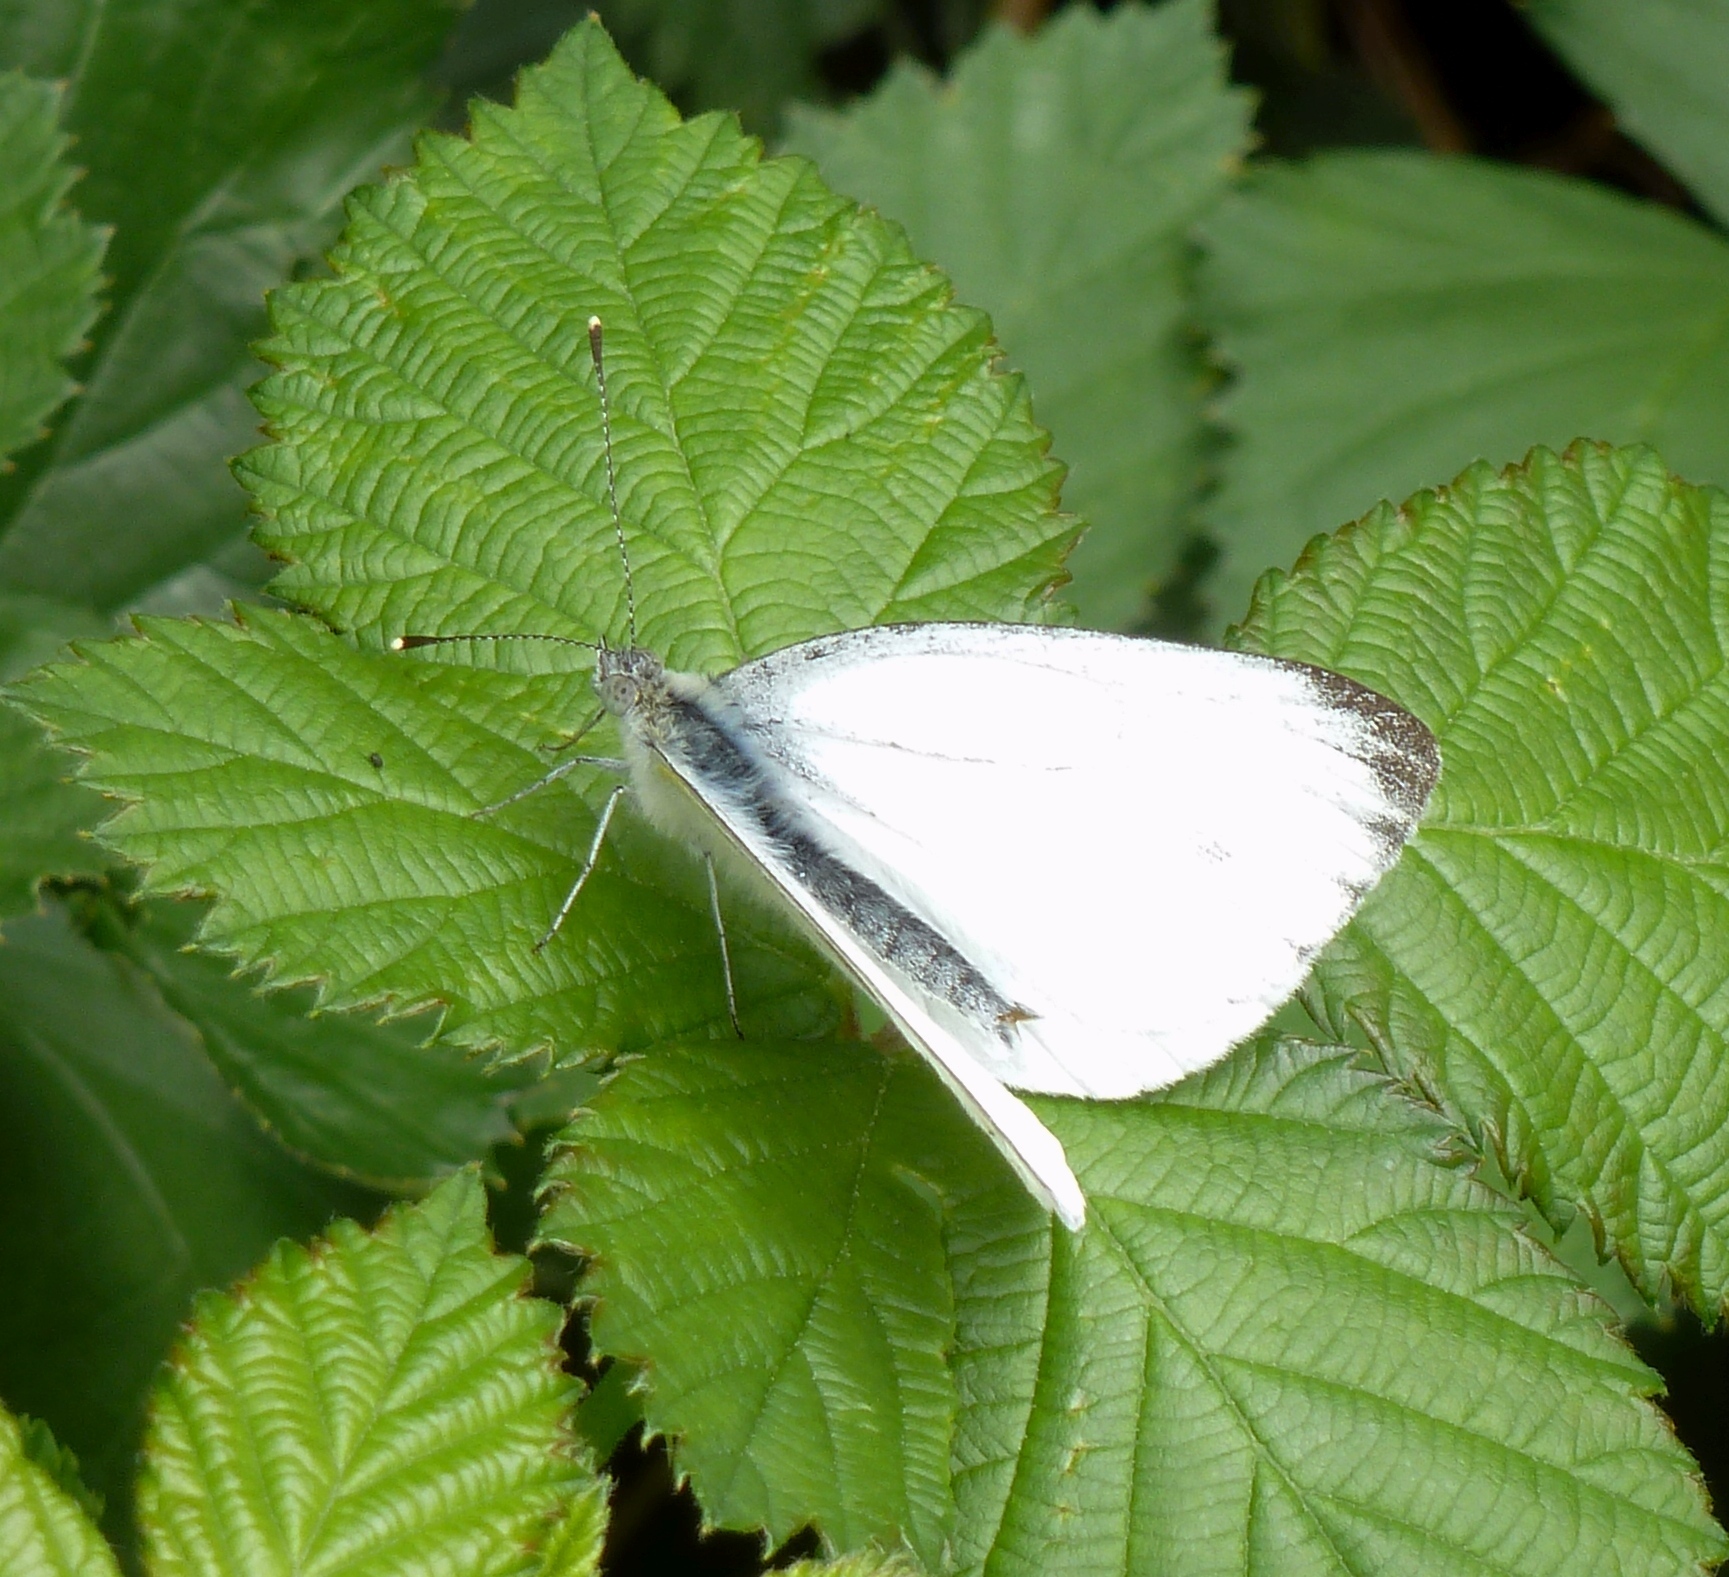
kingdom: Animalia
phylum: Arthropoda
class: Insecta
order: Lepidoptera
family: Pieridae
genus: Pieris
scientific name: Pieris napi
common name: Green-veined white
